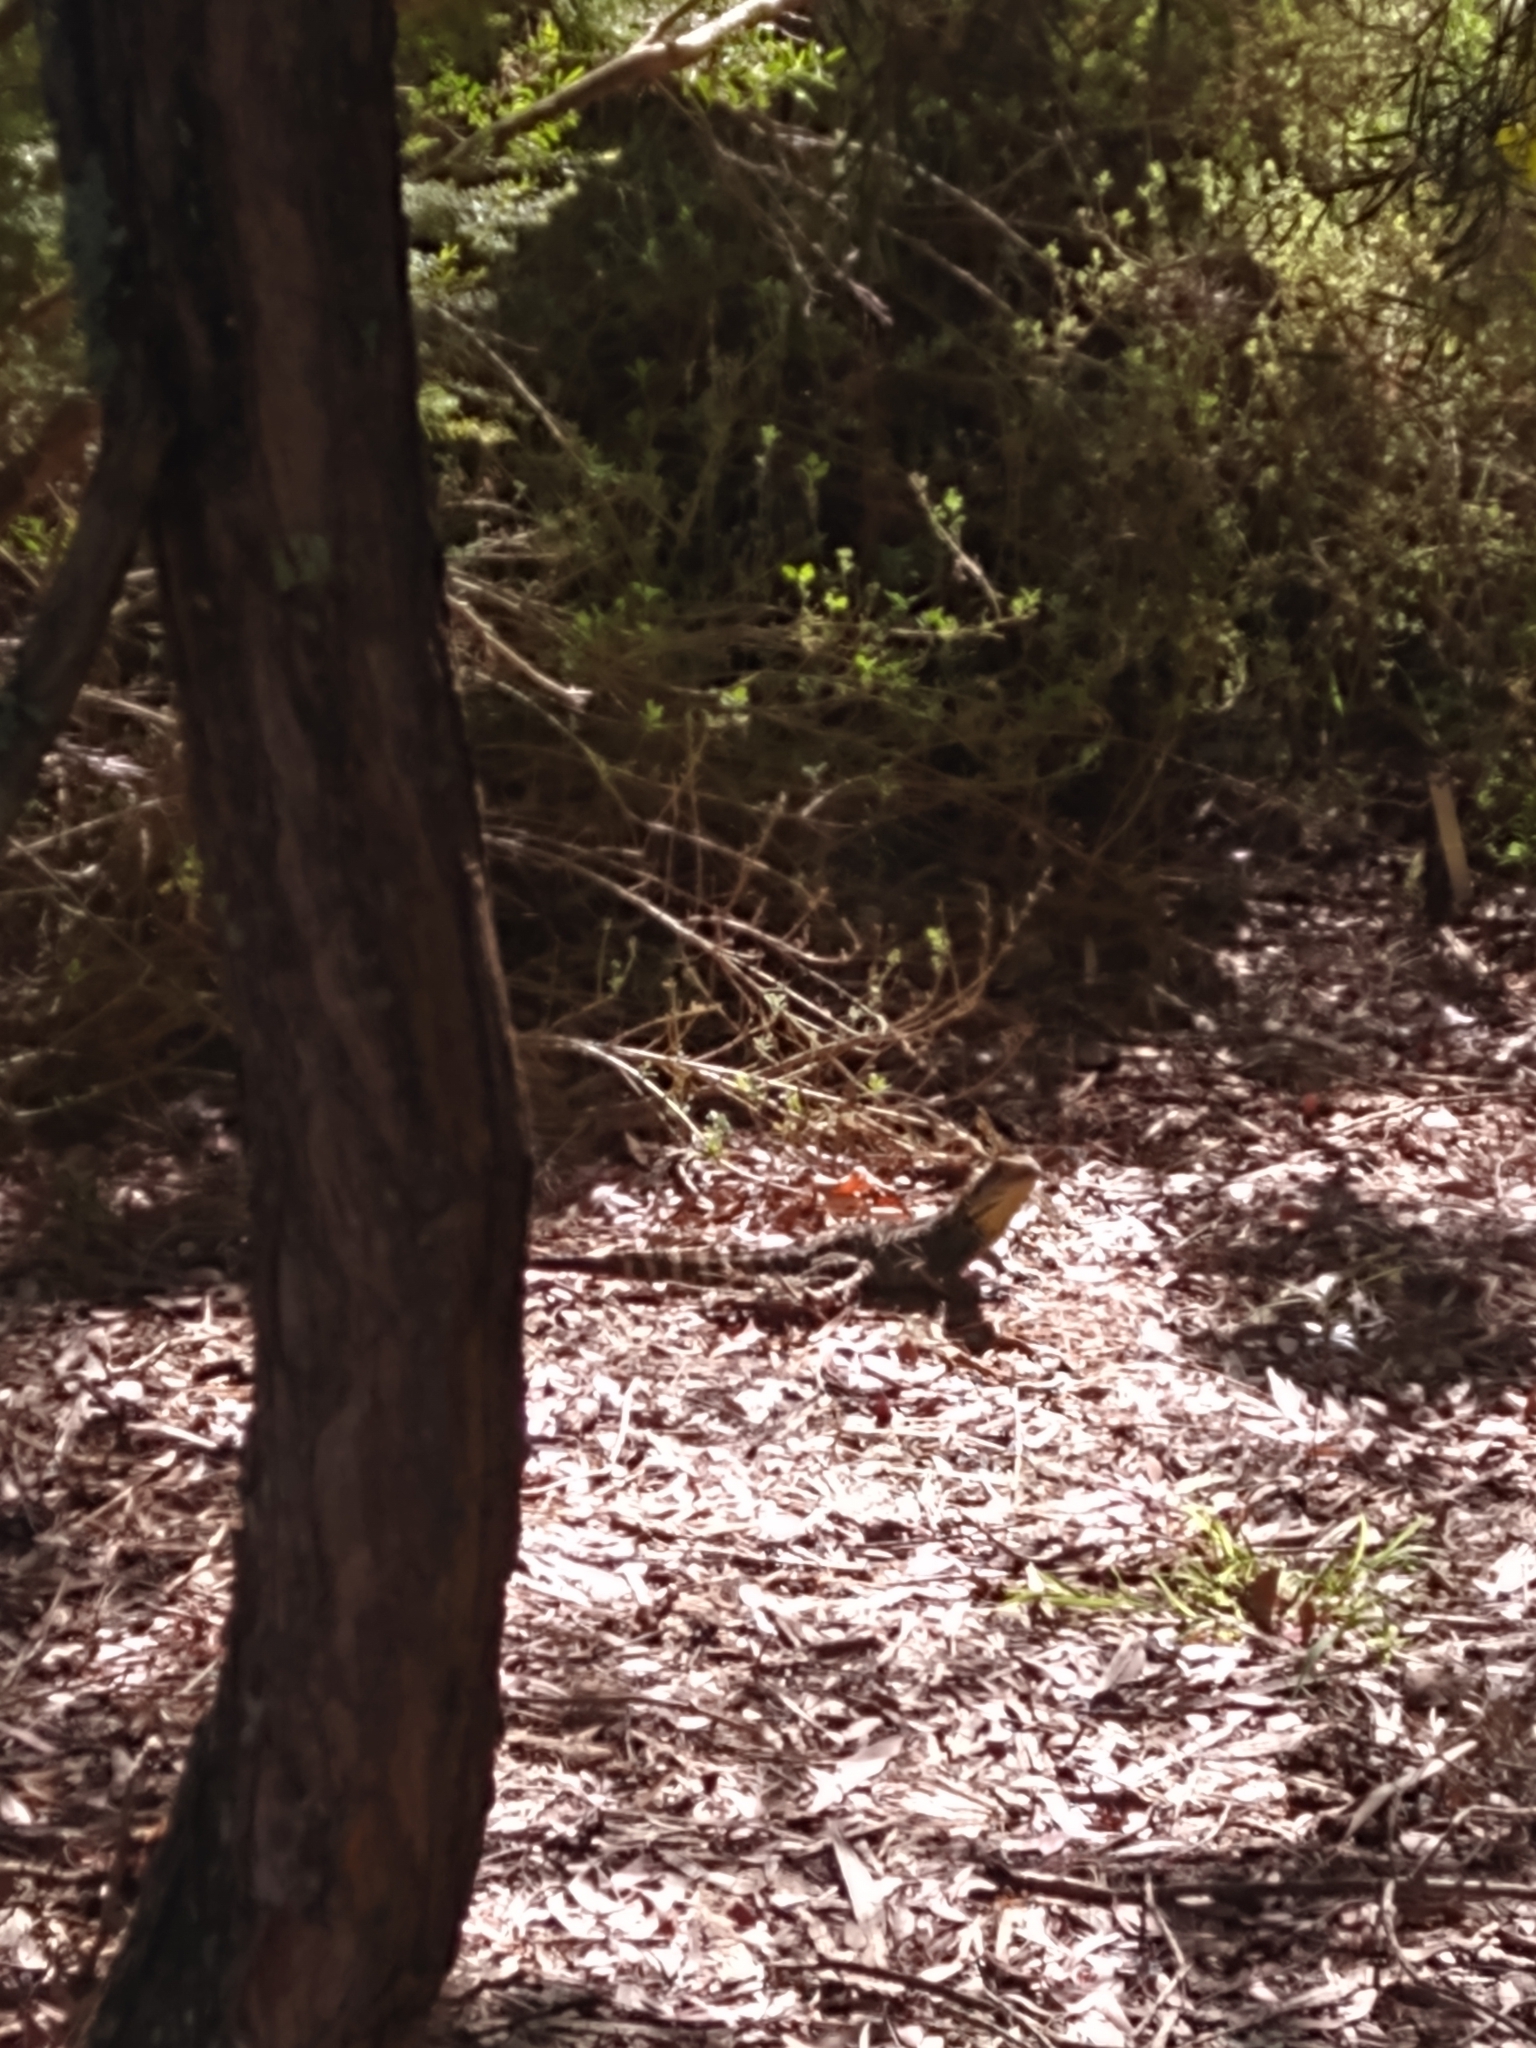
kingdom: Animalia
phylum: Chordata
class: Squamata
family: Agamidae
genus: Intellagama
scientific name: Intellagama lesueurii
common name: Eastern water dragon
